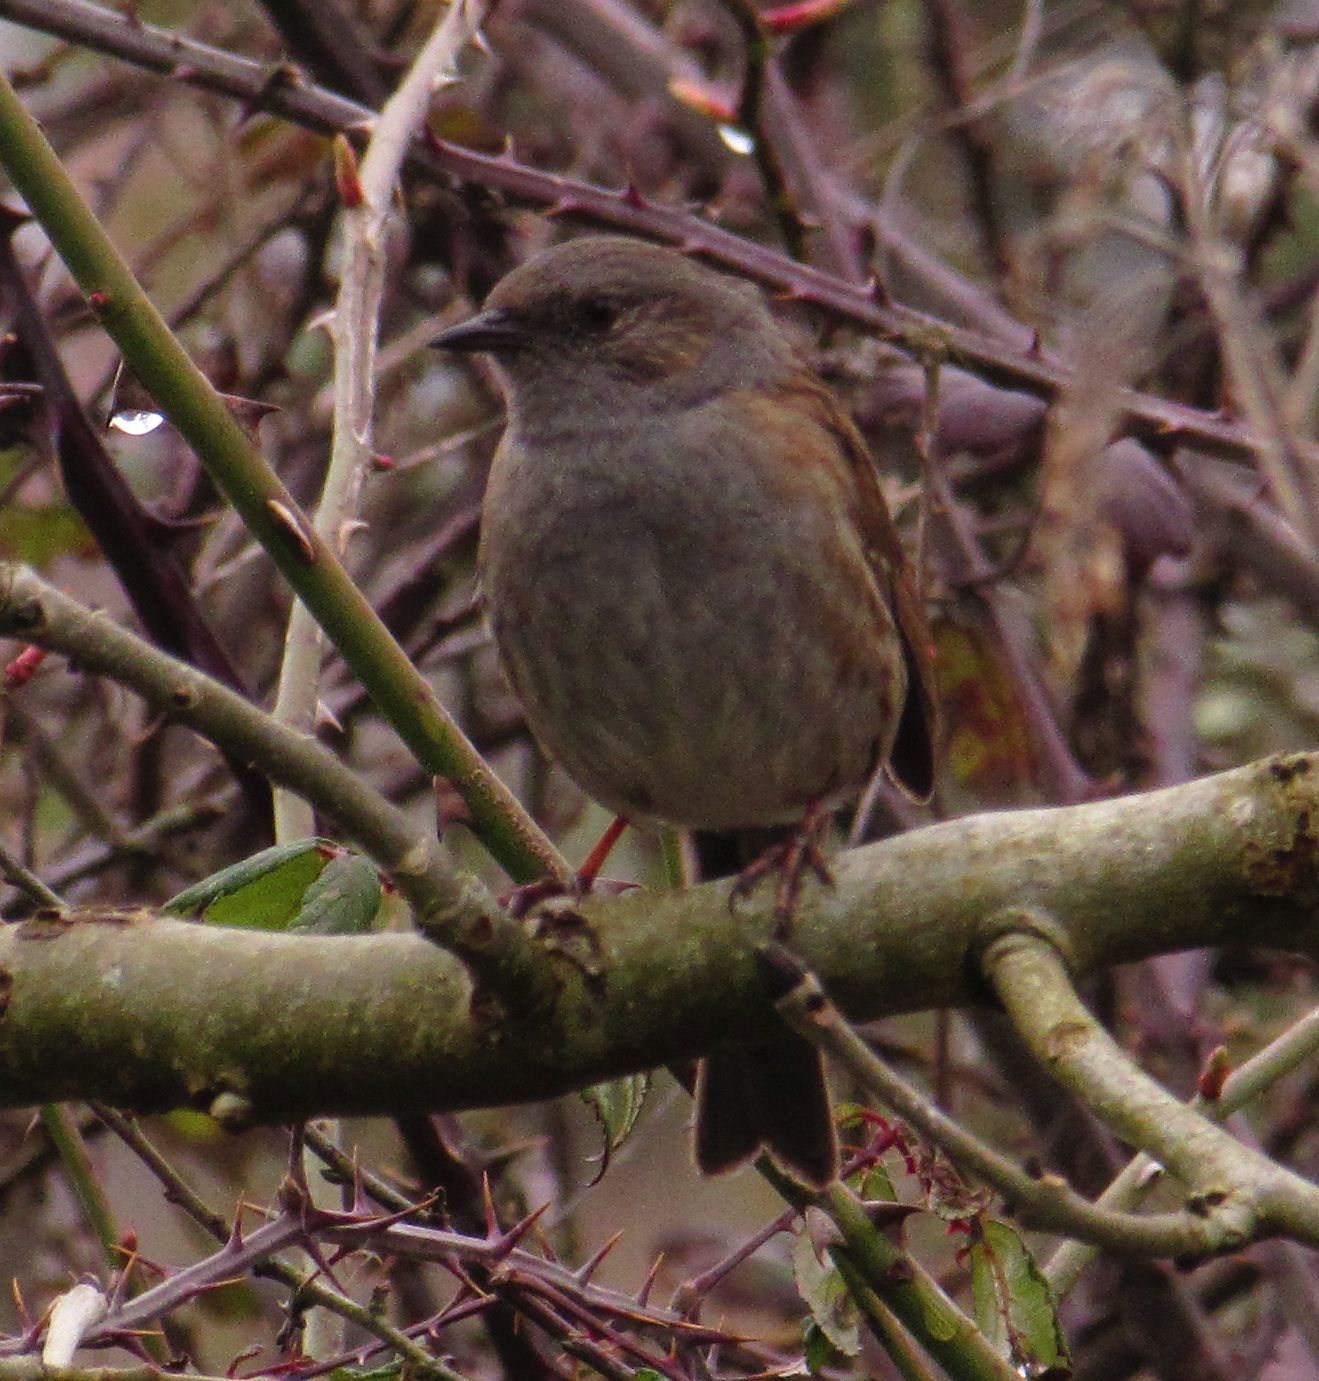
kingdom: Animalia
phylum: Chordata
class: Aves
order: Passeriformes
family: Prunellidae
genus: Prunella
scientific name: Prunella modularis
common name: Dunnock
